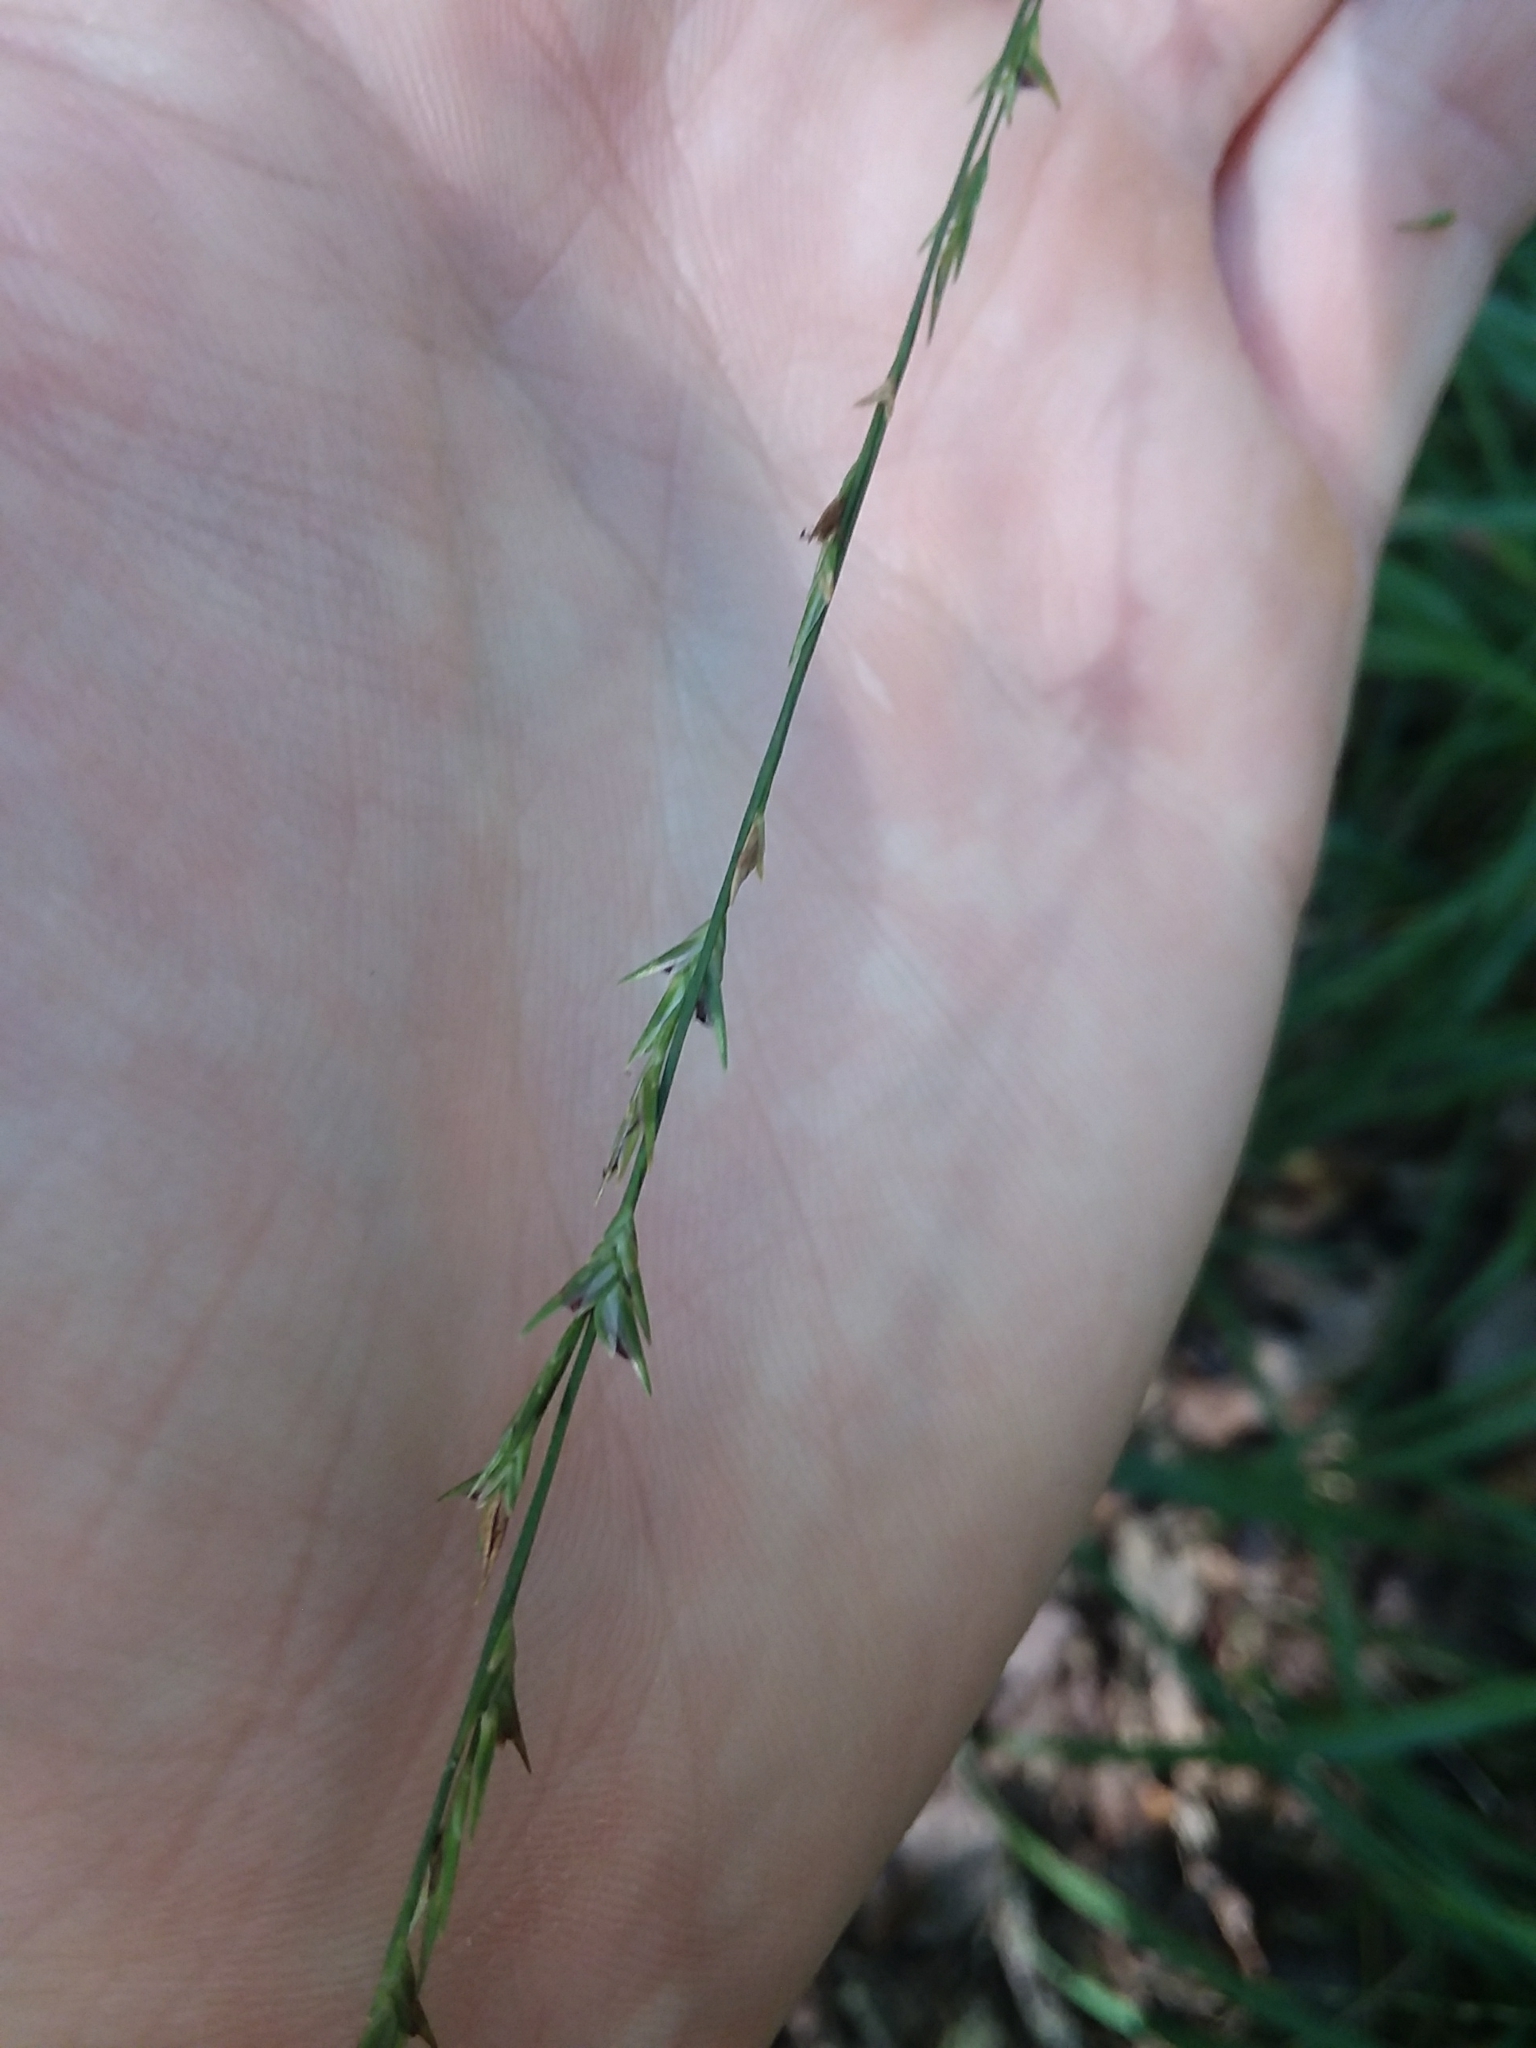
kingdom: Plantae
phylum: Tracheophyta
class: Liliopsida
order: Poales
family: Poaceae
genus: Chasmanthium
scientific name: Chasmanthium laxum
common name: Slender chasmanthium
